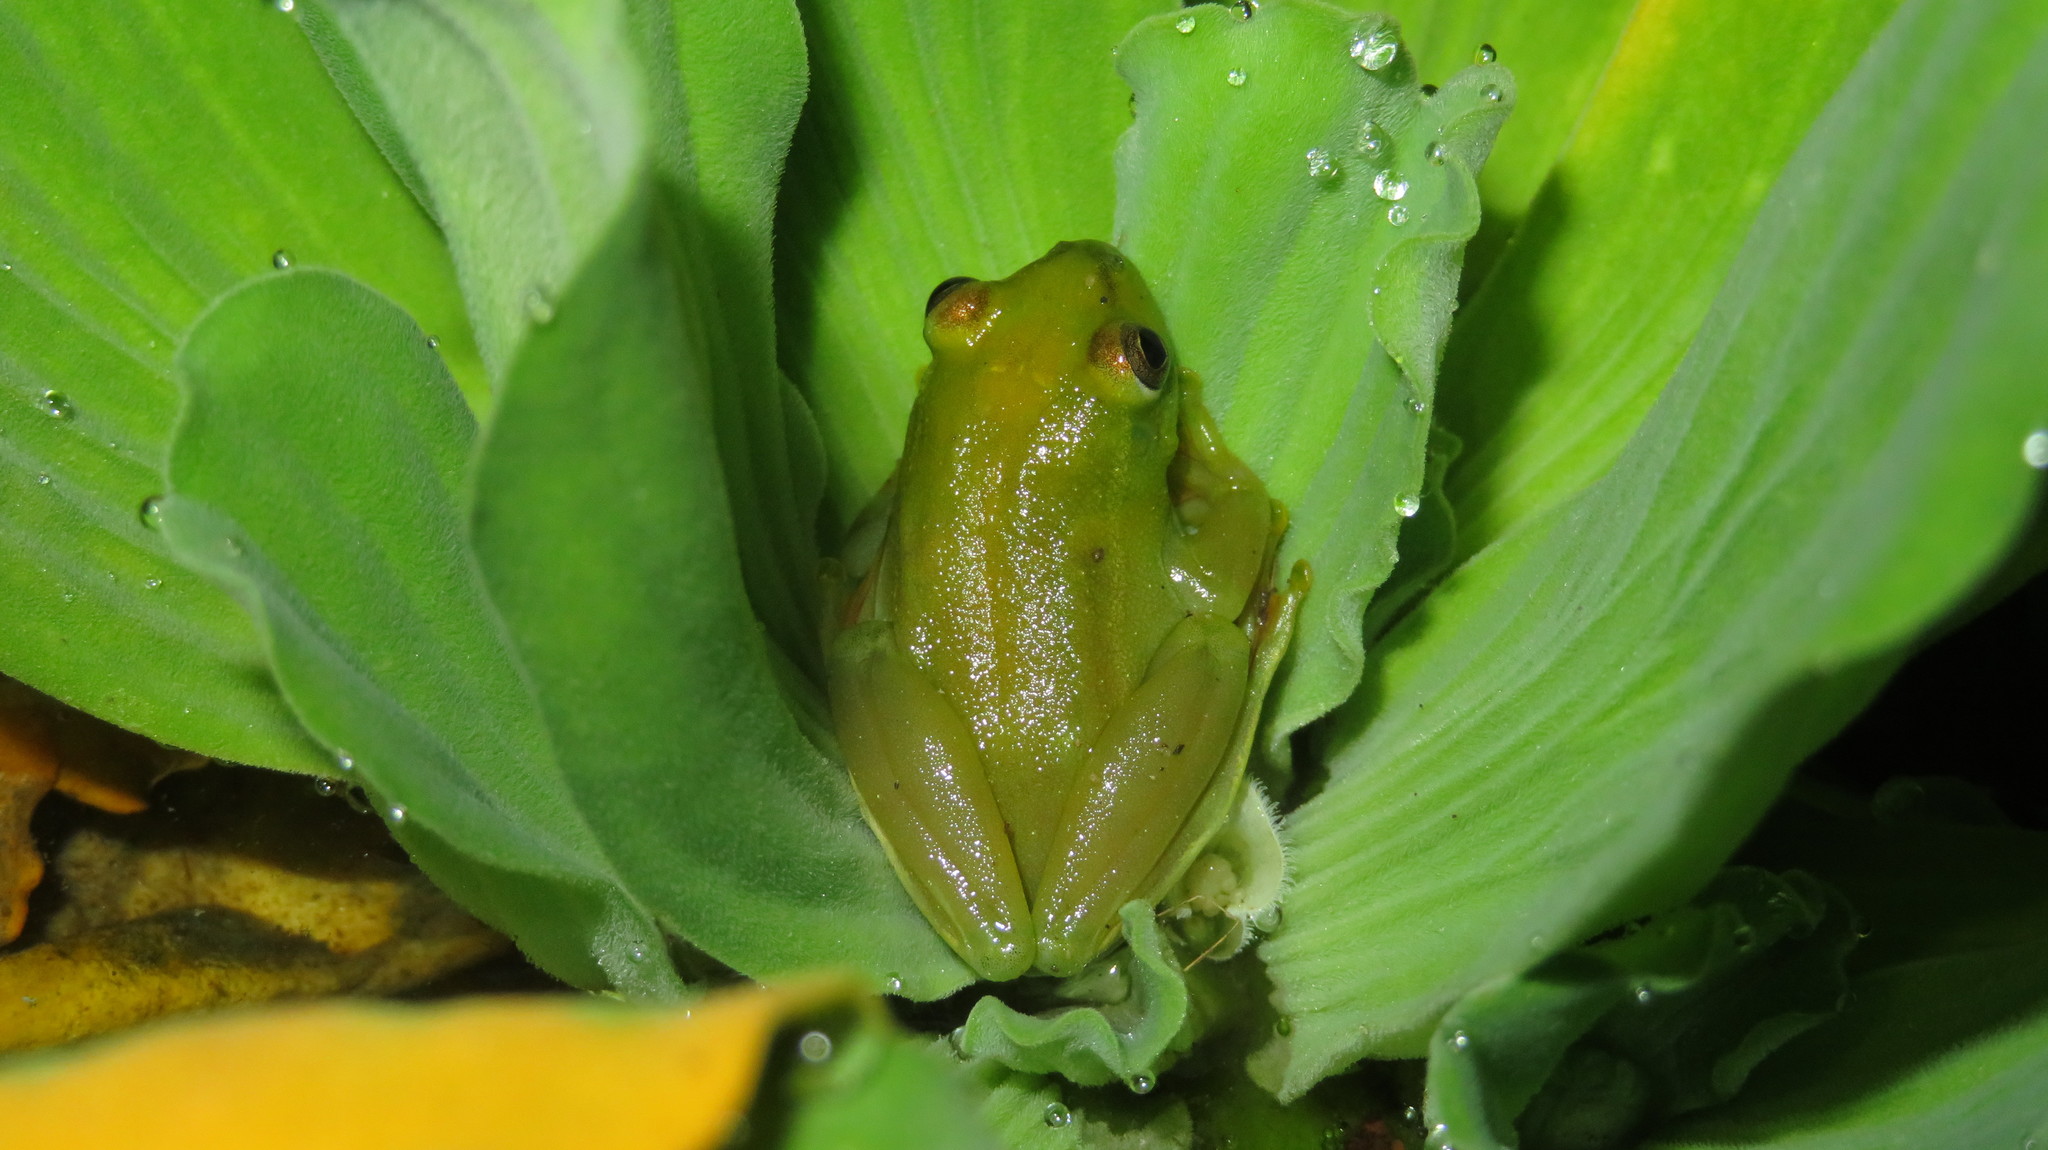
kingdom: Animalia
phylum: Chordata
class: Amphibia
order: Anura
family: Hyperoliidae
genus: Hyperolius
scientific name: Hyperolius argus
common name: Argus reed frog
